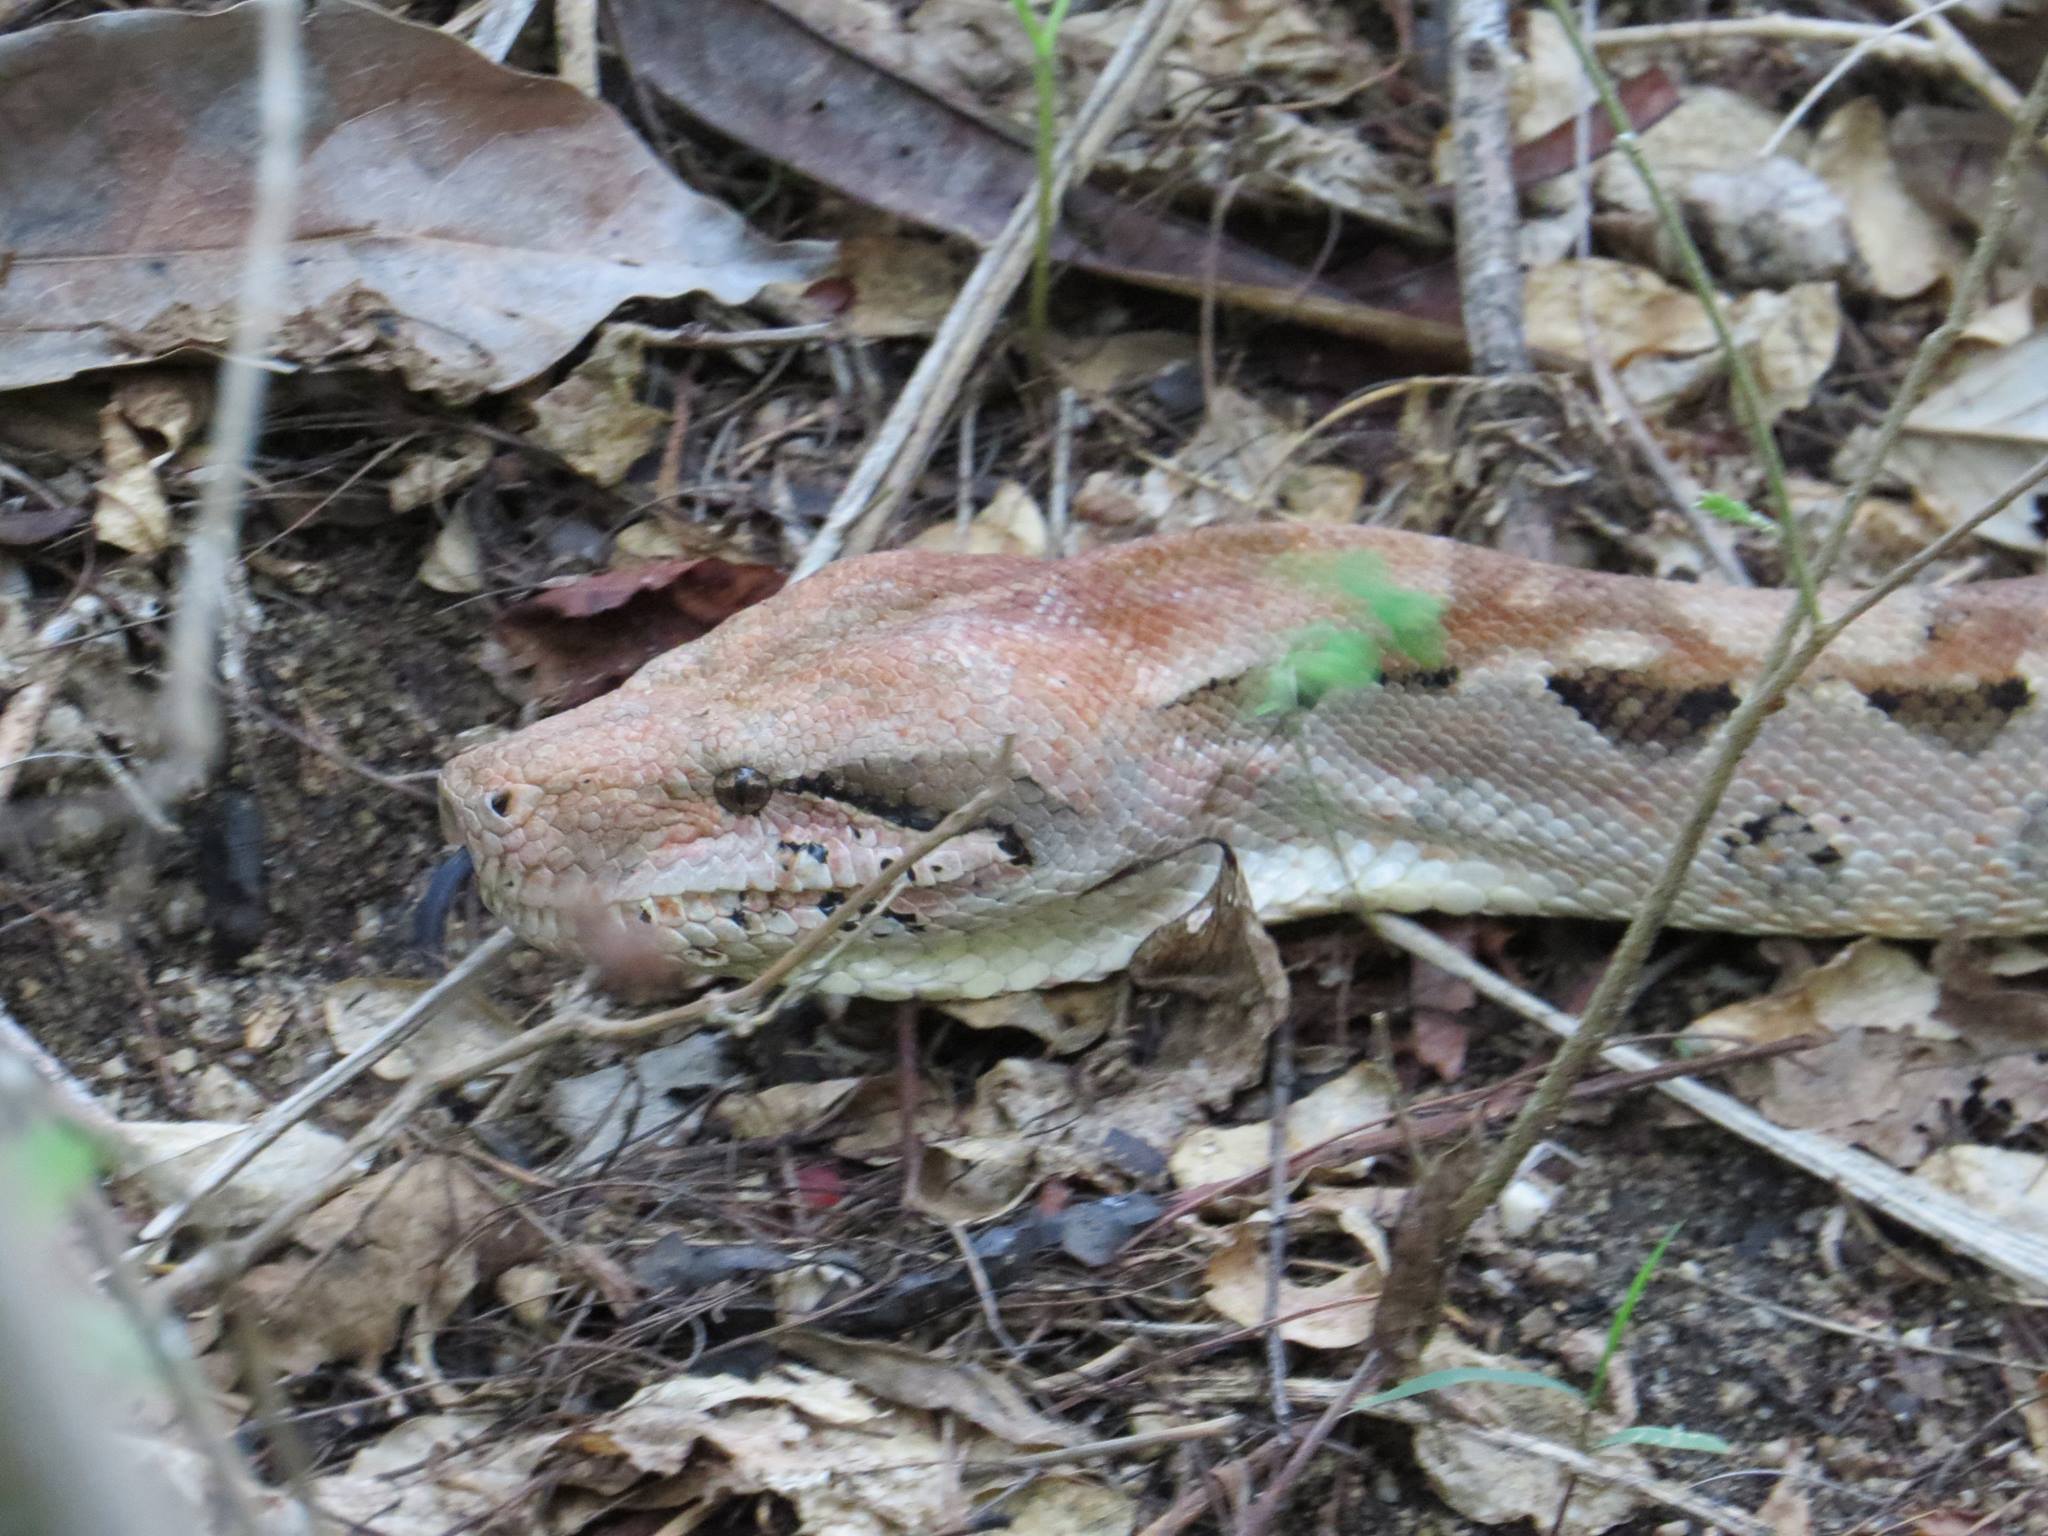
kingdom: Animalia
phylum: Chordata
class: Squamata
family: Boidae
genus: Boa
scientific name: Boa imperator
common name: Central american boa
